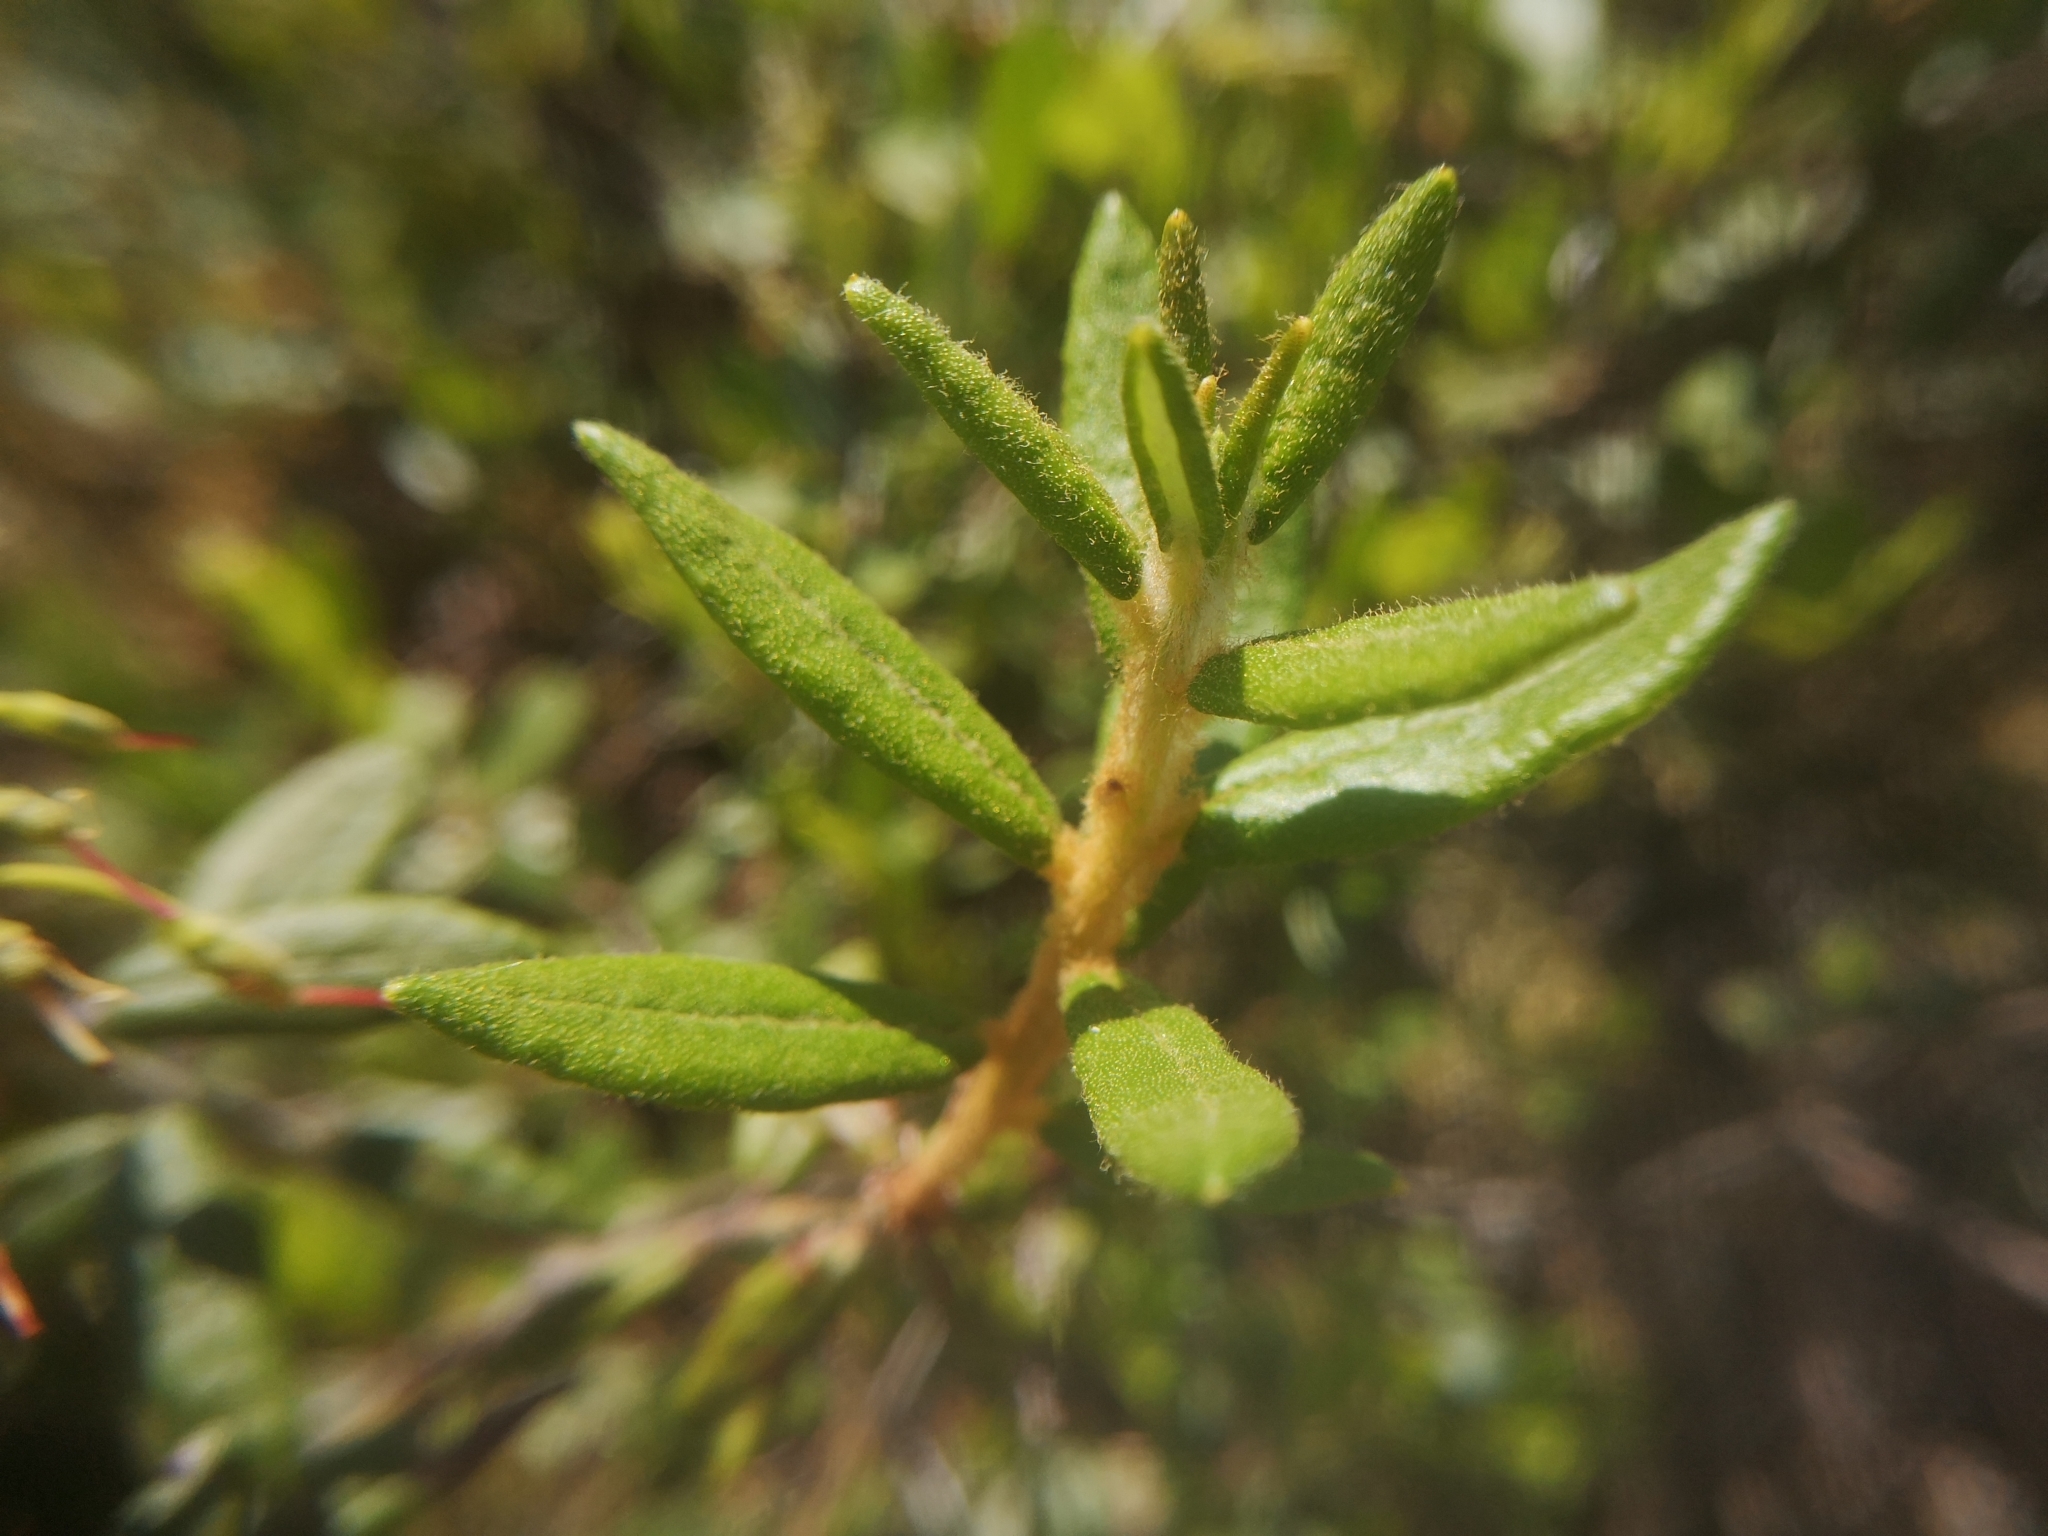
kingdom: Plantae
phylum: Tracheophyta
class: Magnoliopsida
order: Ericales
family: Ericaceae
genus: Rhododendron
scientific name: Rhododendron groenlandicum
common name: Bog labrador tea
